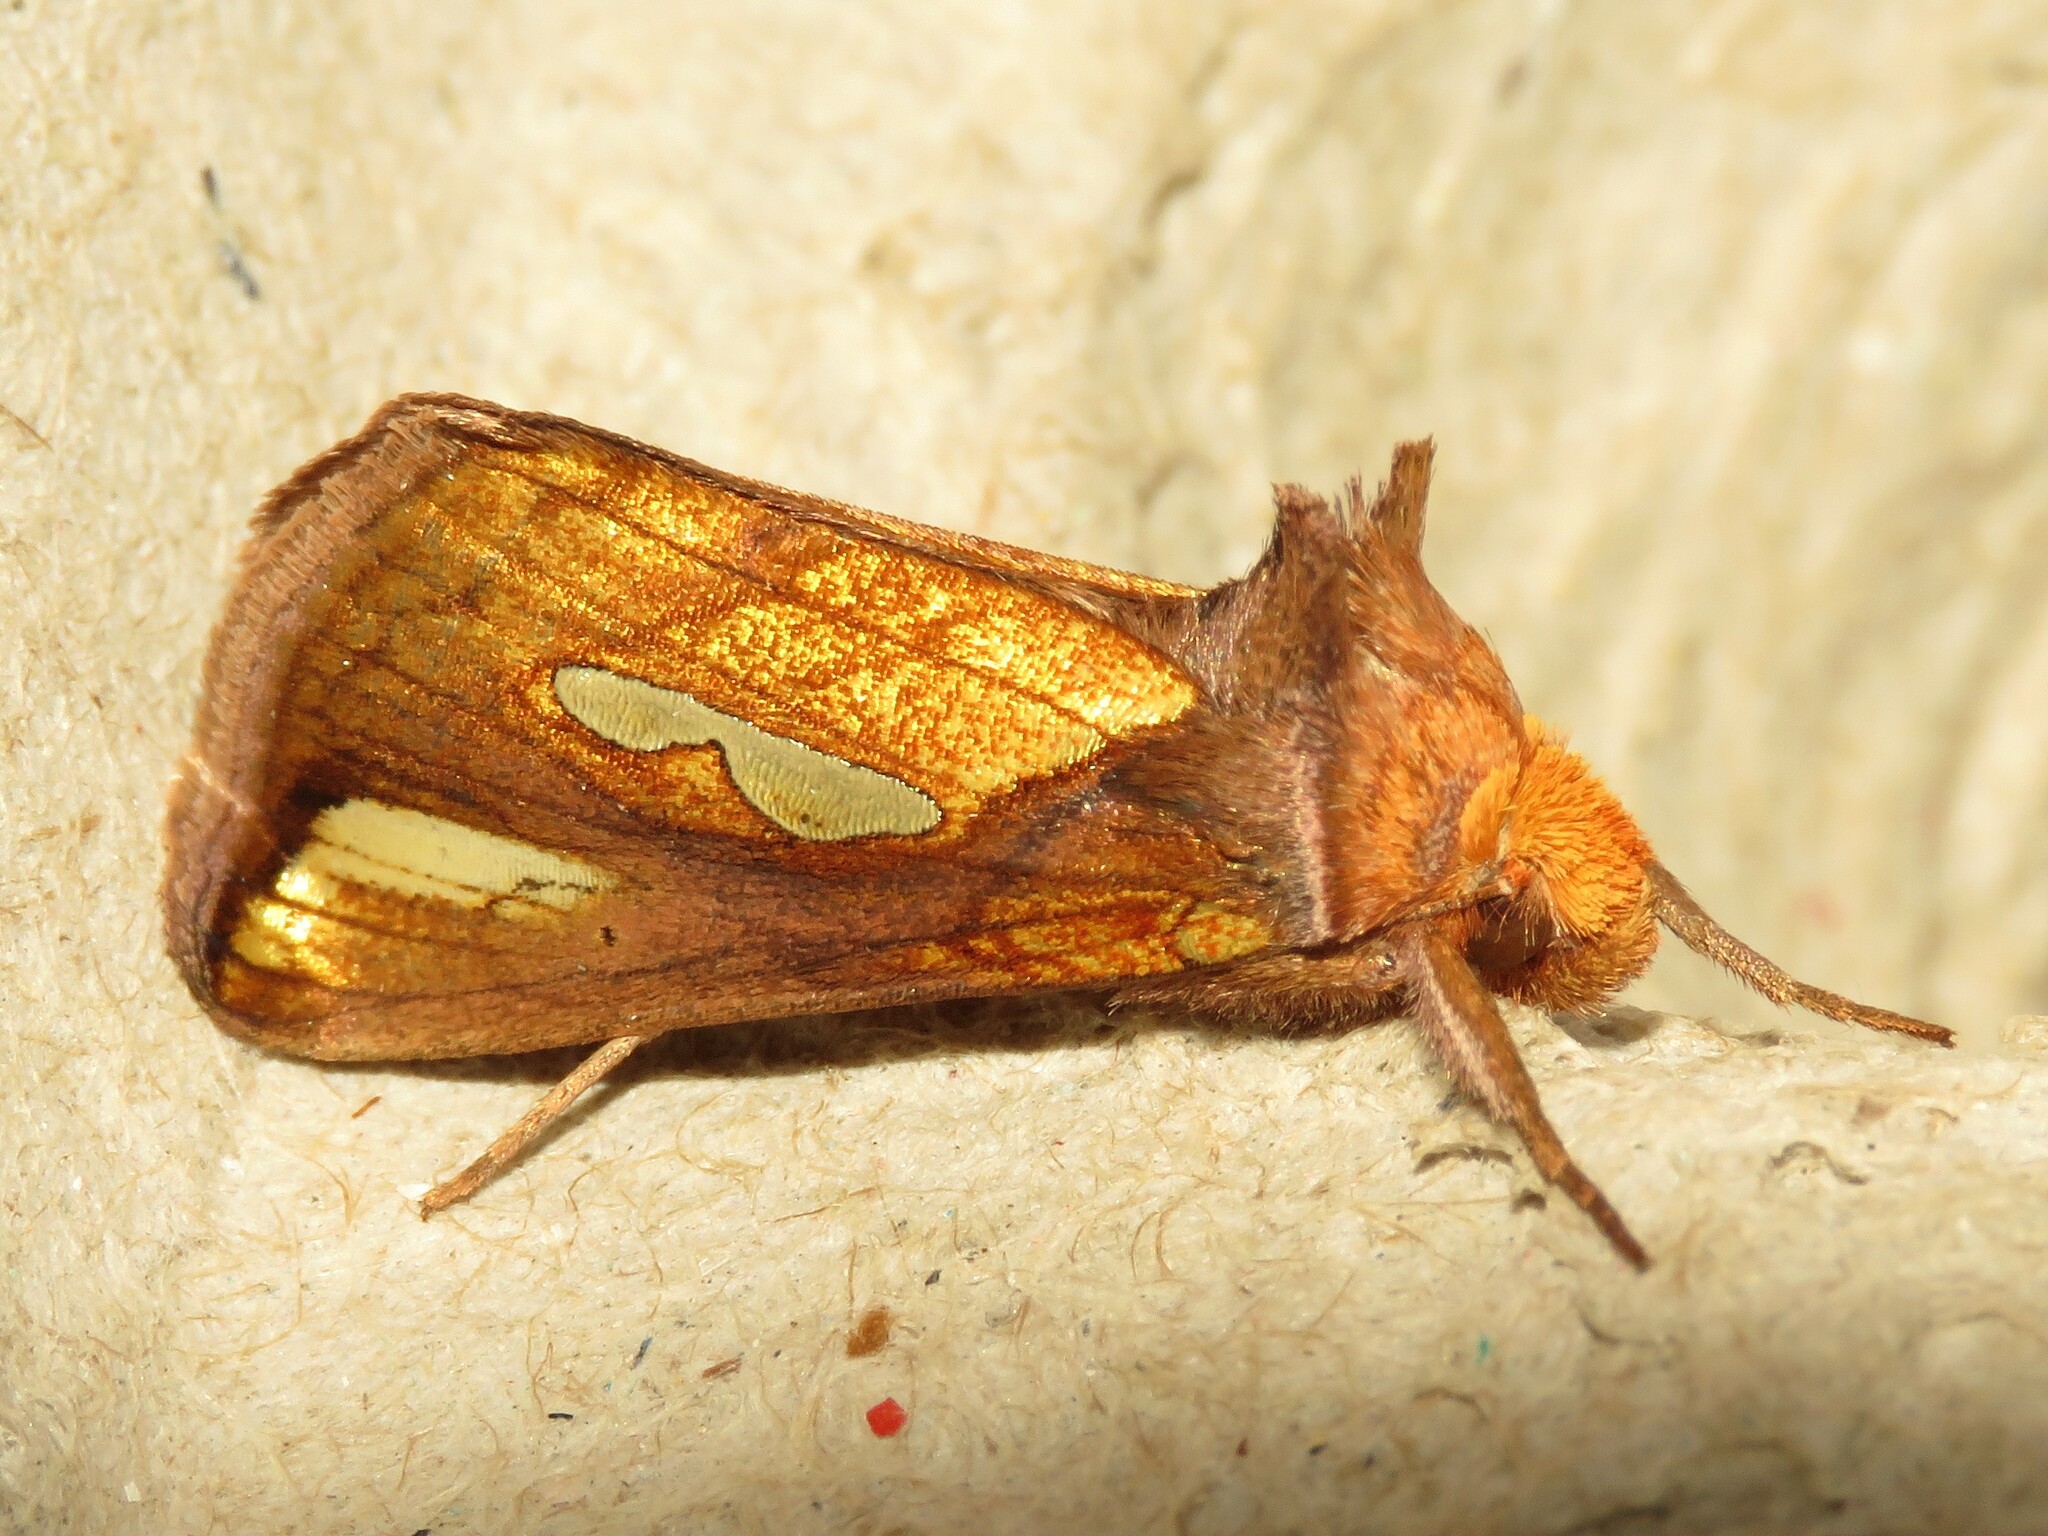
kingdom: Animalia
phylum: Arthropoda
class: Insecta
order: Lepidoptera
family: Noctuidae
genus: Plusia
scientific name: Plusia contexta
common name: Connected looper moth
